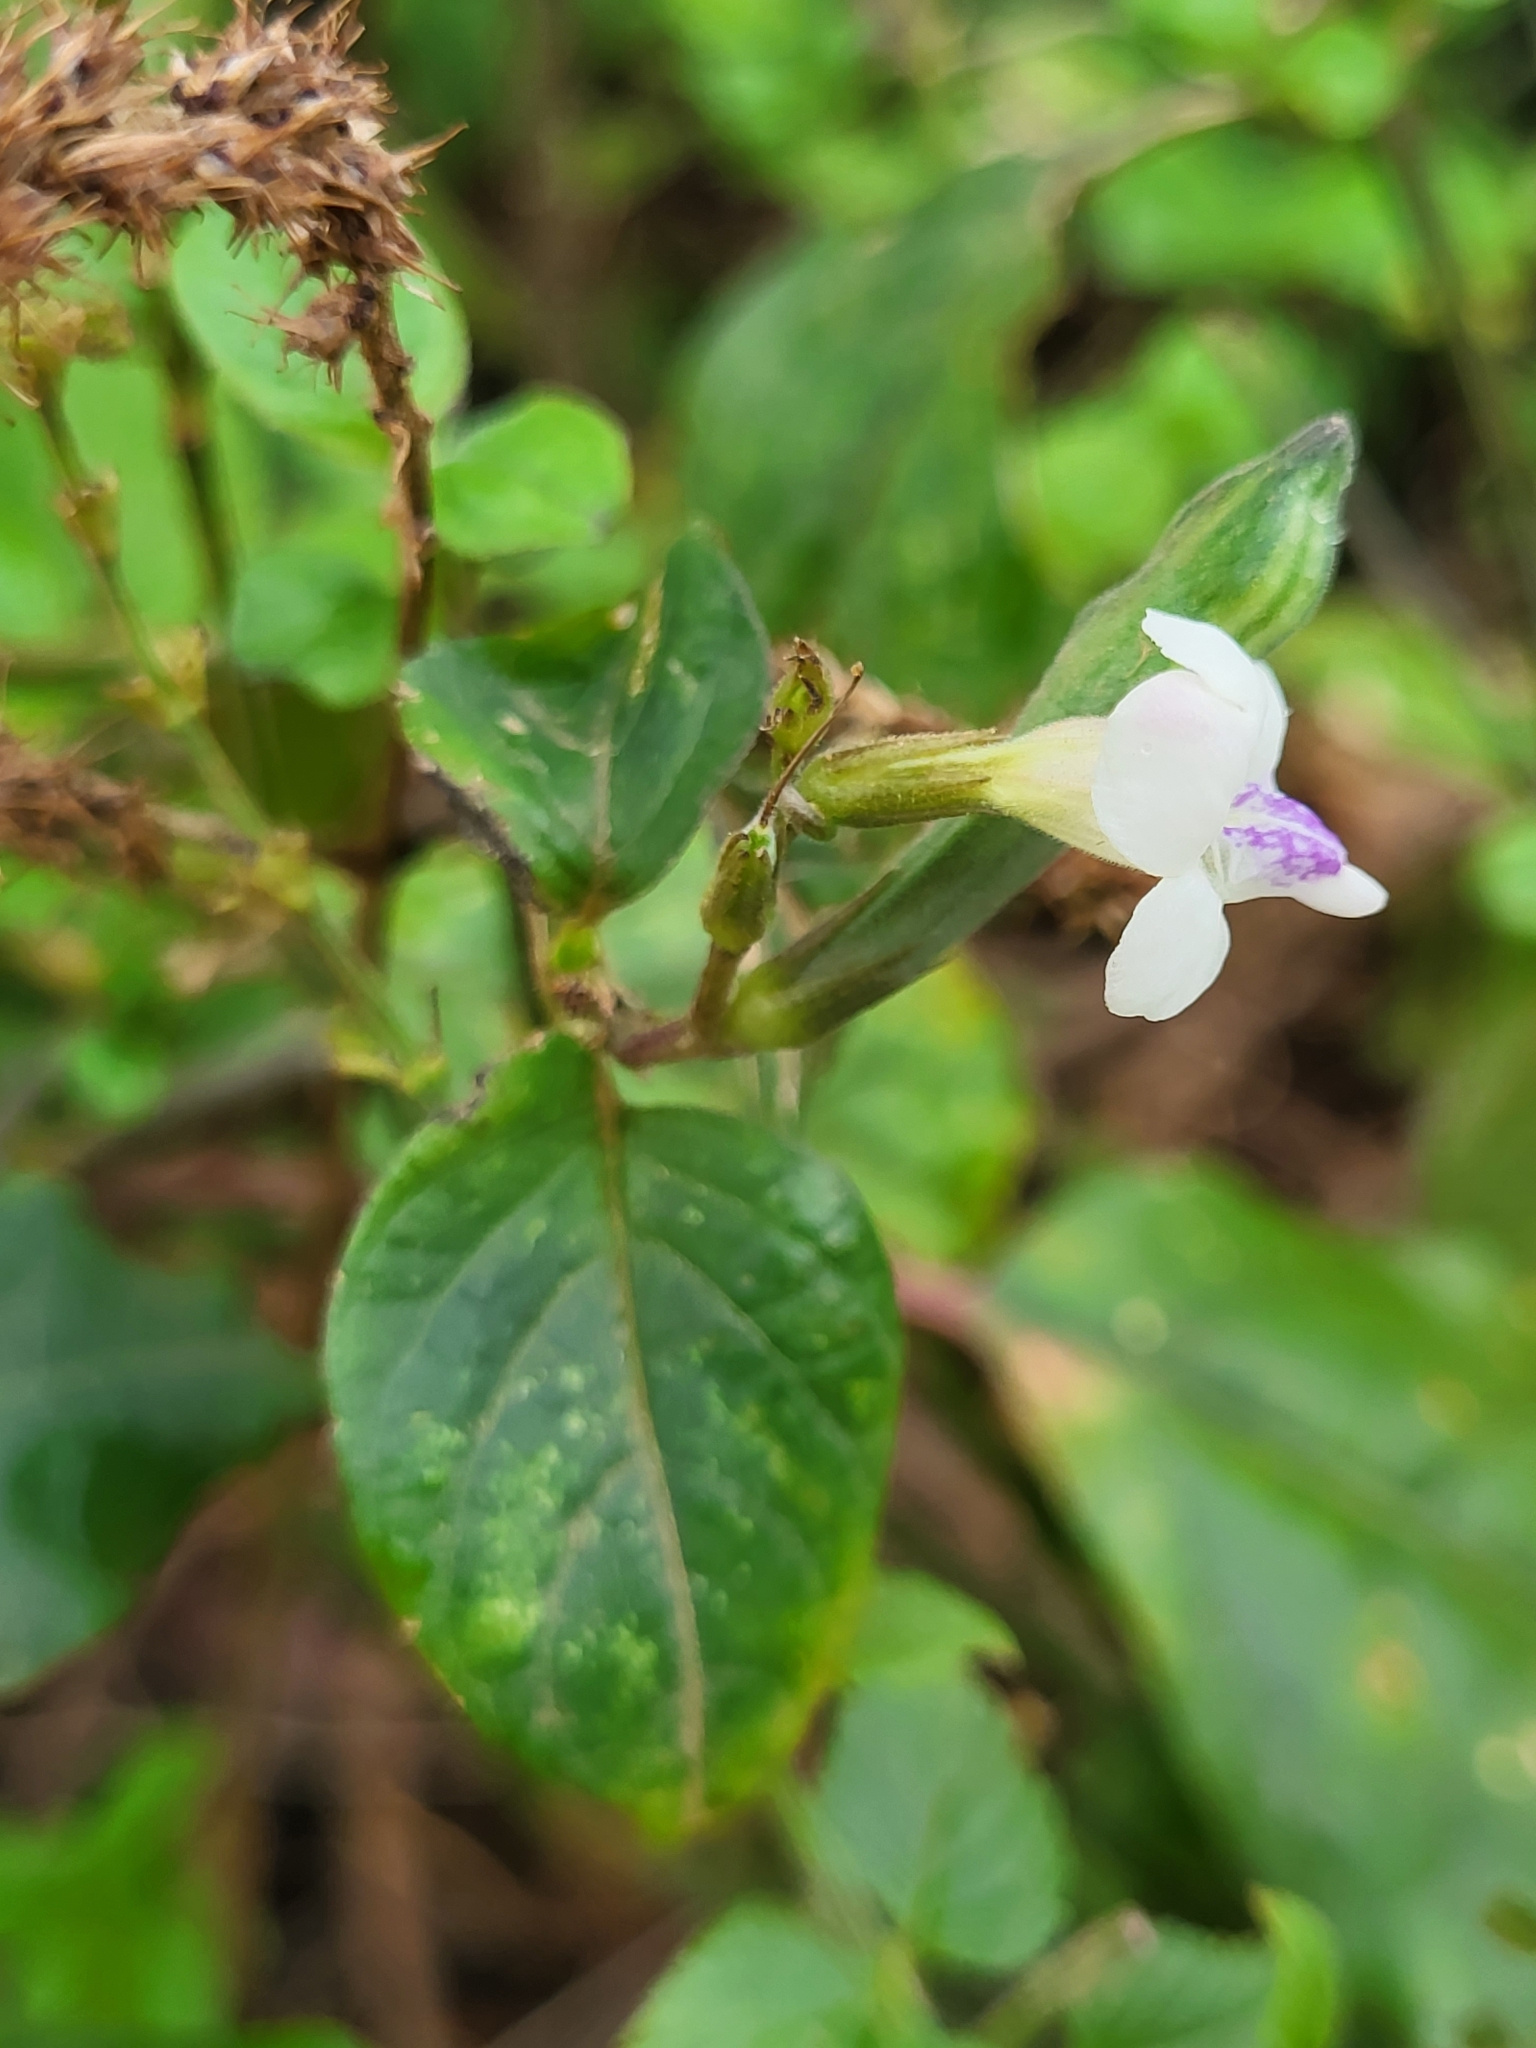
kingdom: Plantae
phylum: Tracheophyta
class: Magnoliopsida
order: Lamiales
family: Acanthaceae
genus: Asystasia
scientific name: Asystasia intrusa
